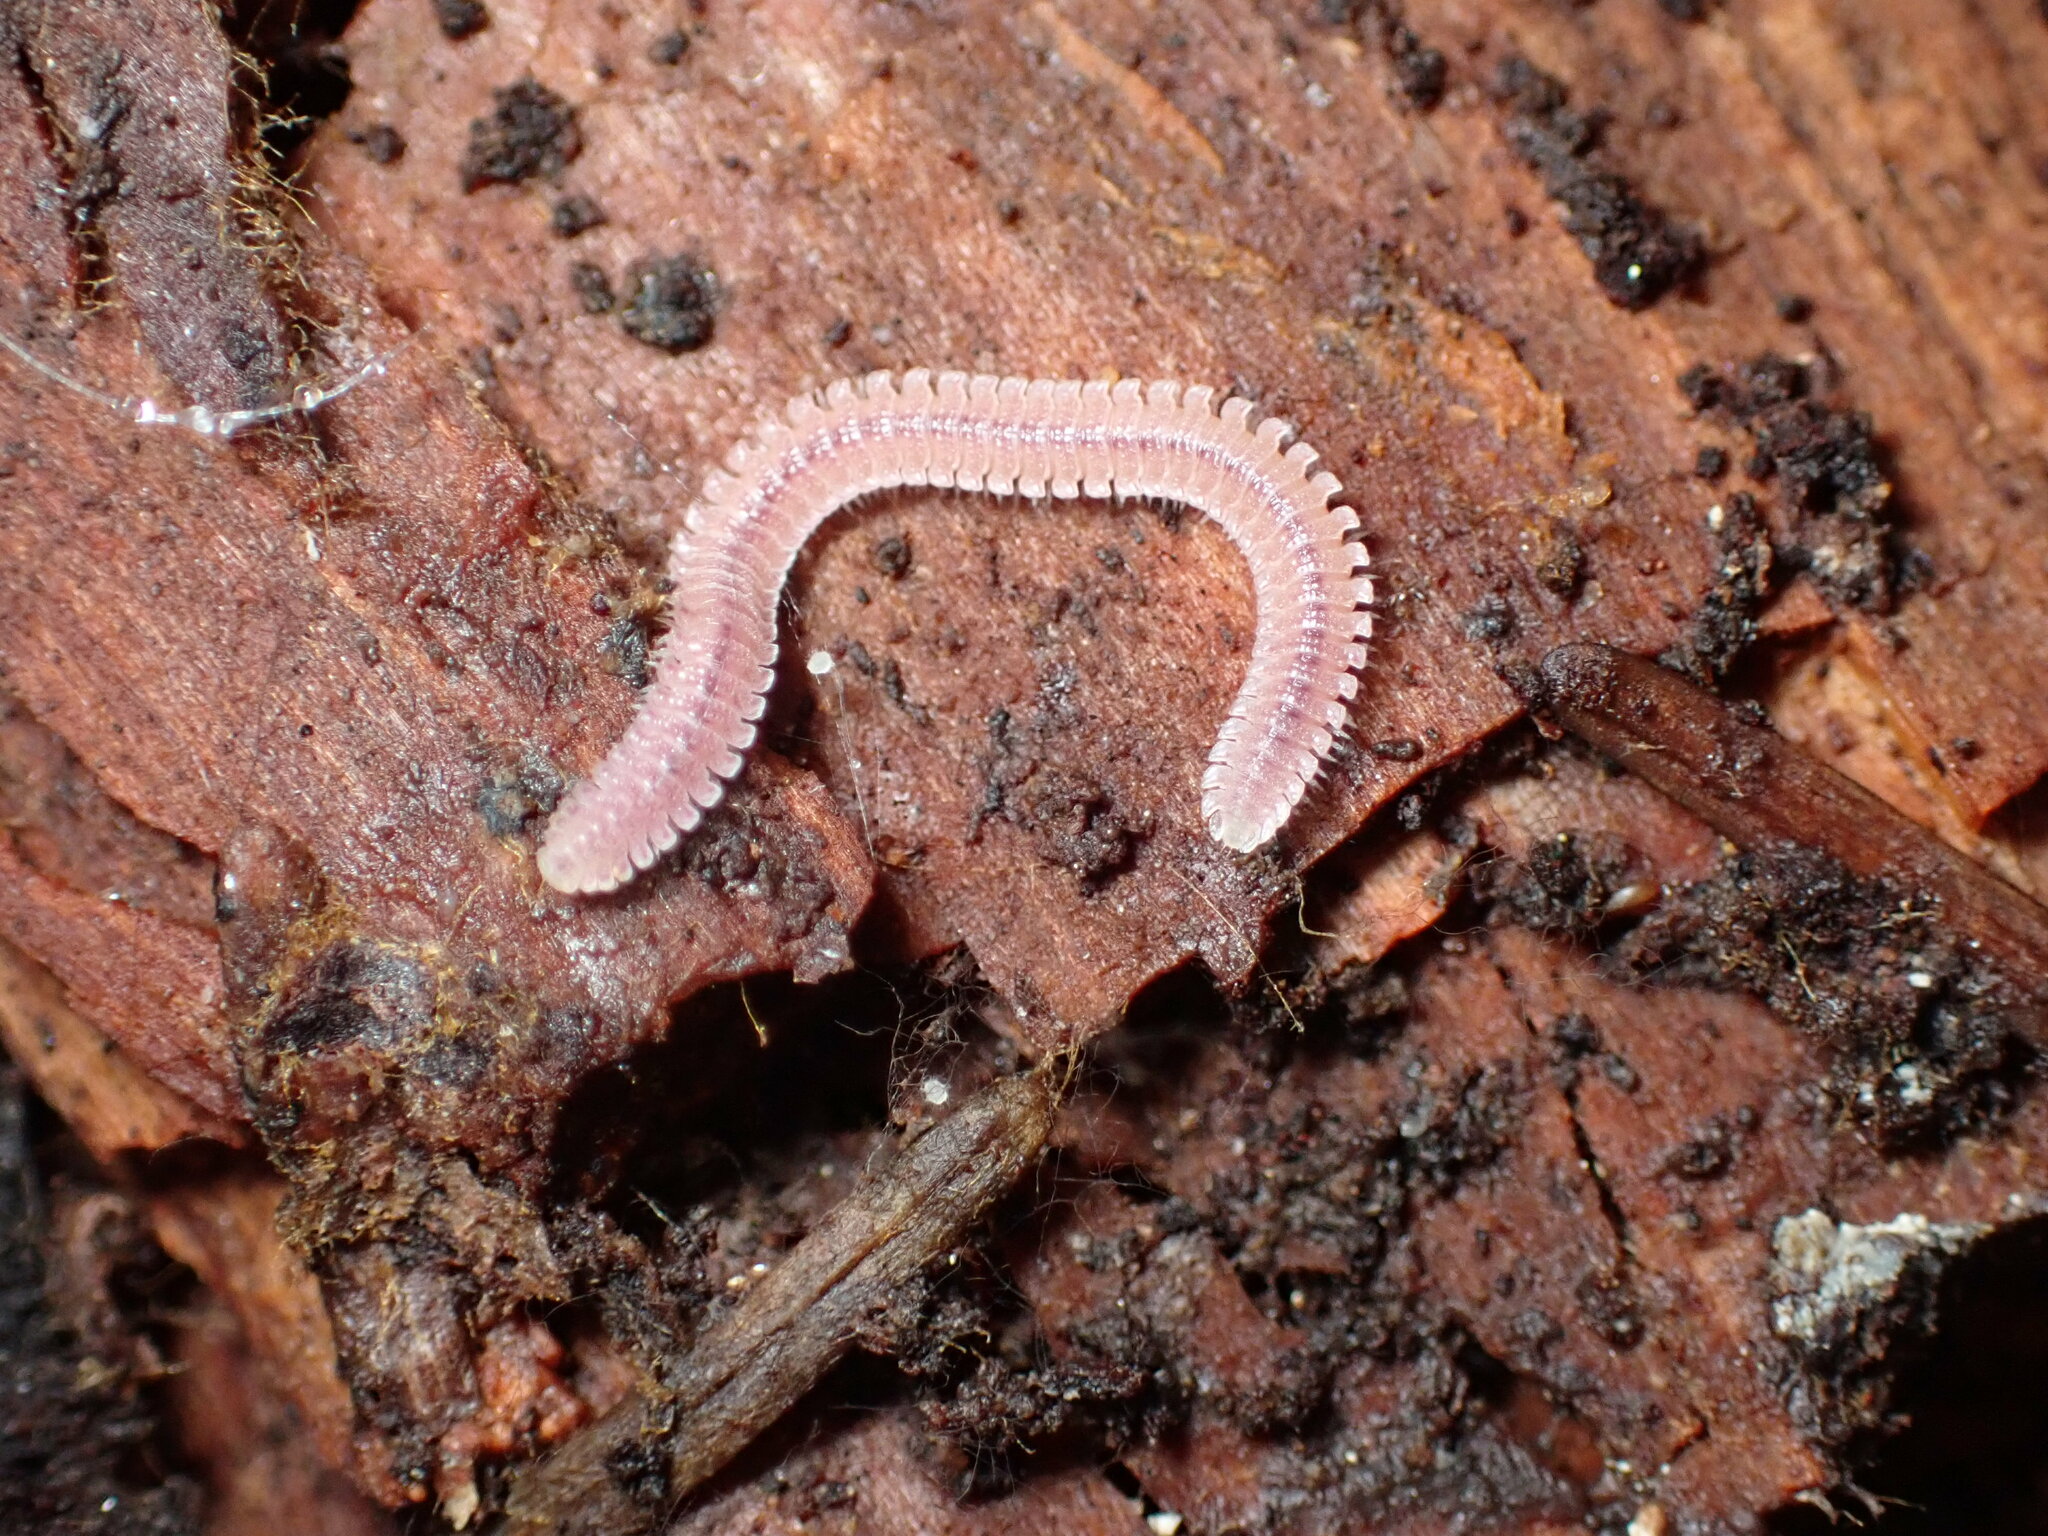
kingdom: Animalia
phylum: Arthropoda
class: Diplopoda
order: Platydesmida
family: Andrognathidae
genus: Gosodesmus
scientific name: Gosodesmus claremontus
